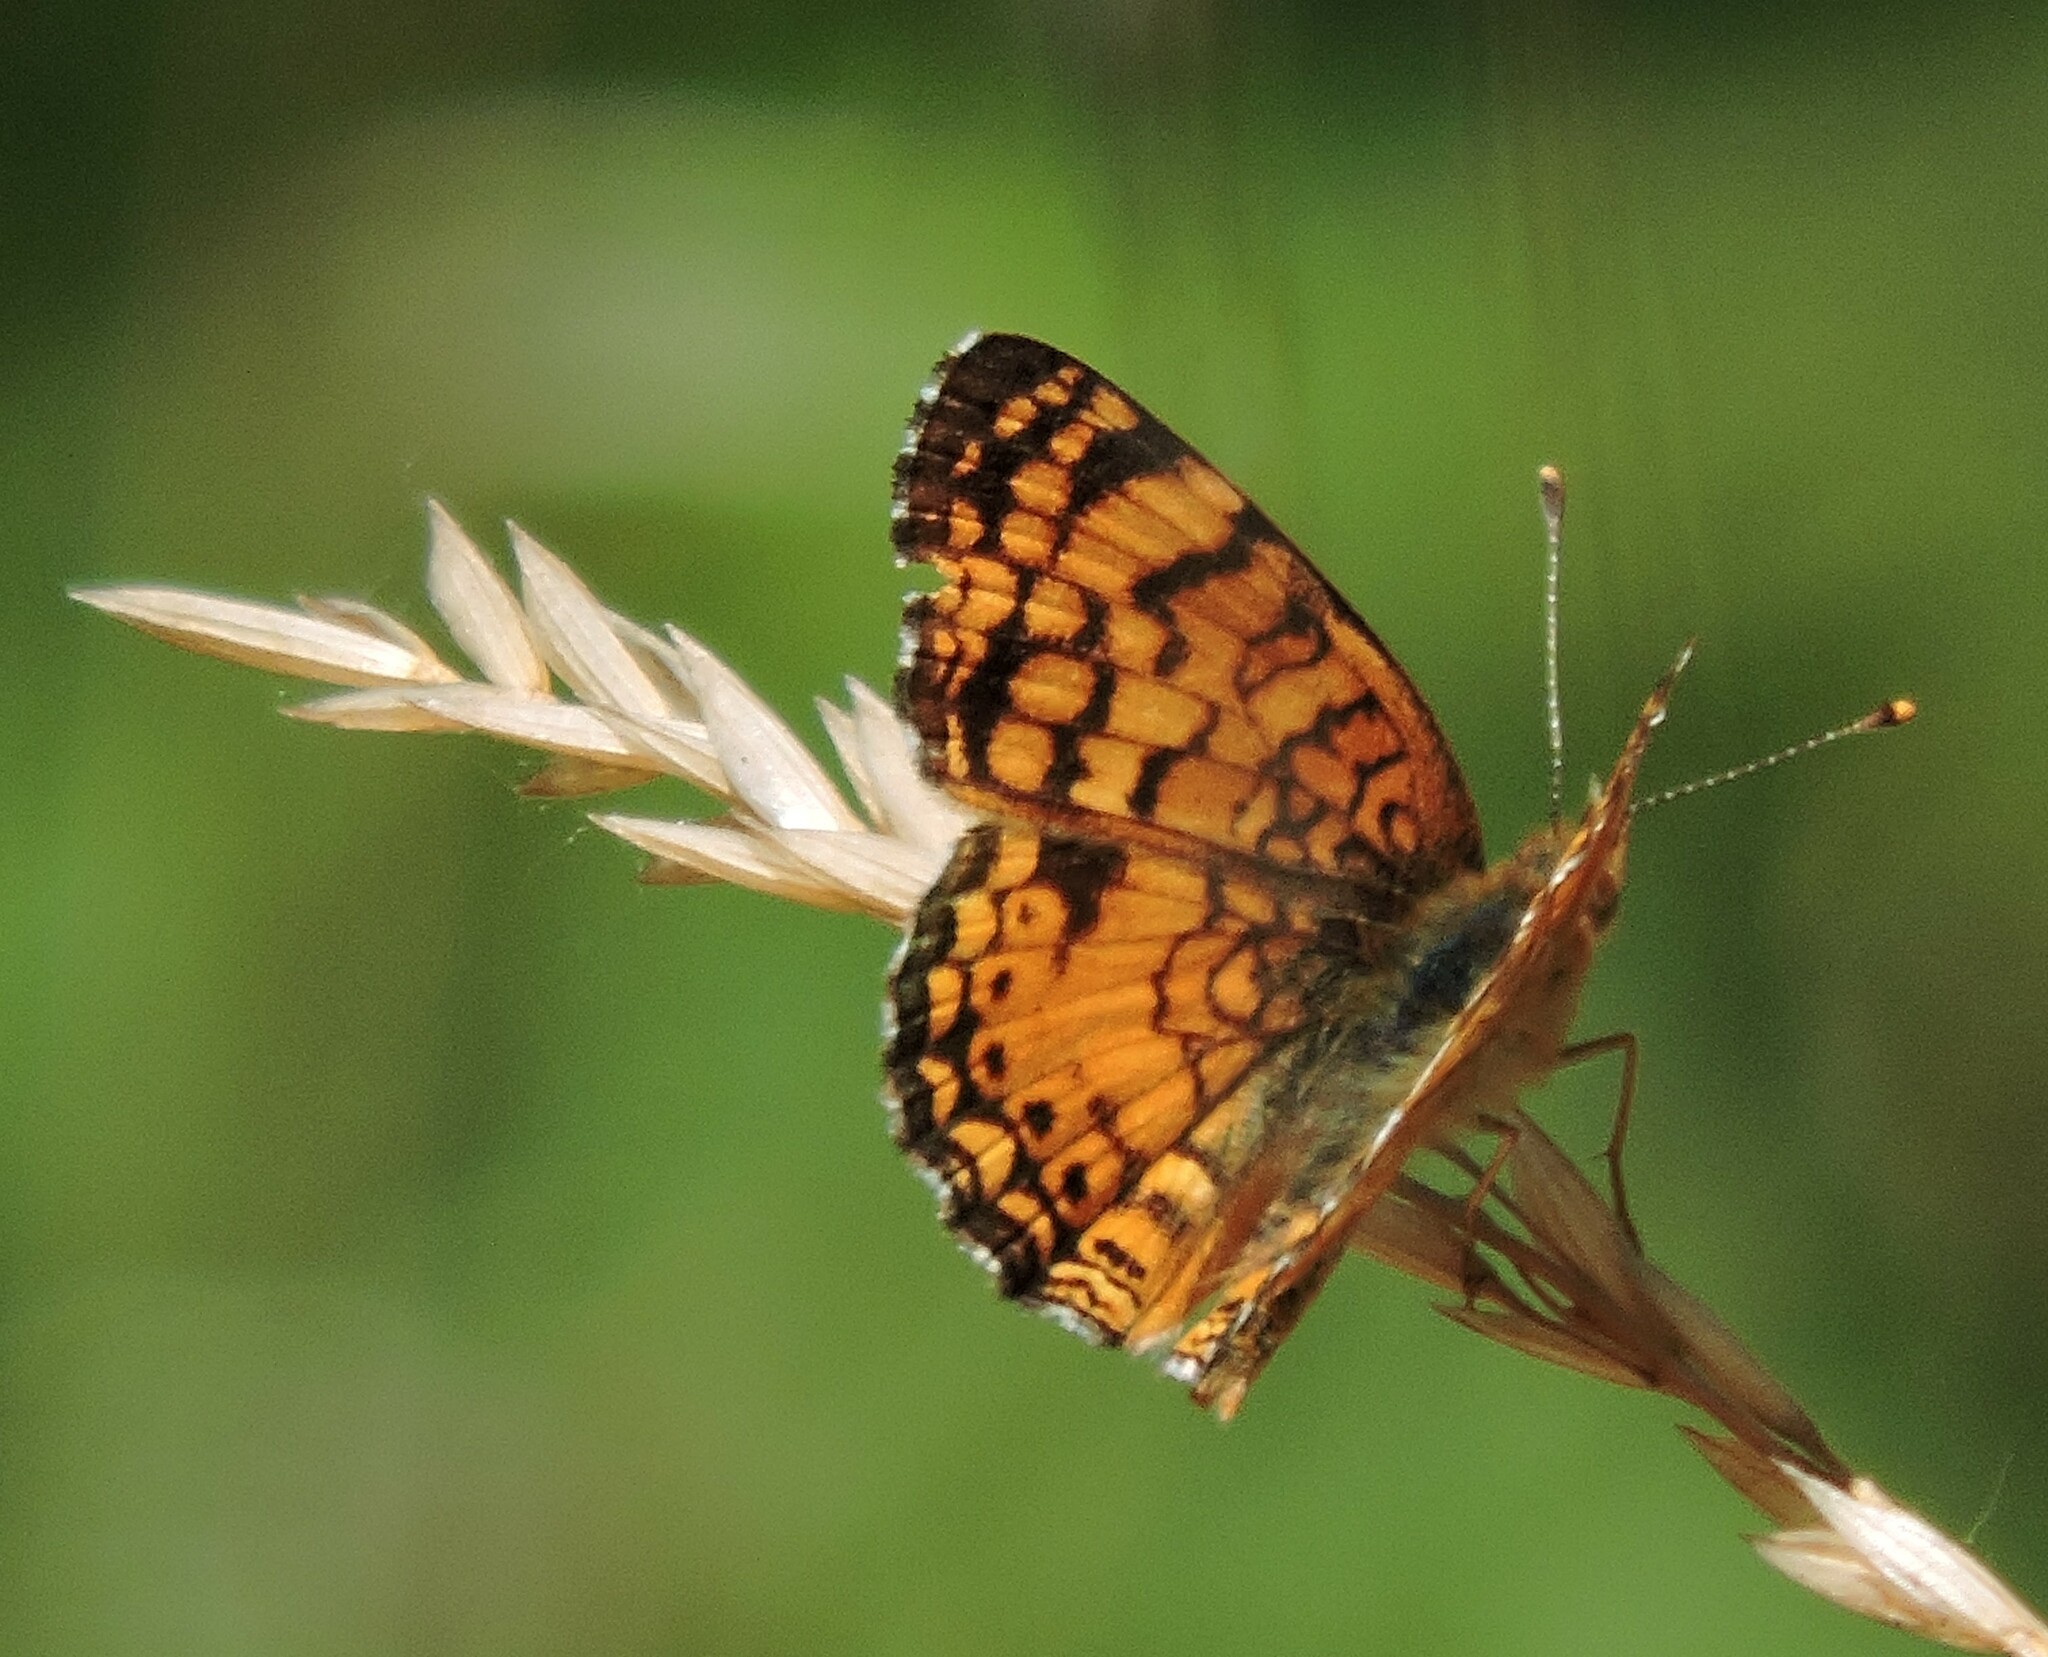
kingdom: Animalia
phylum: Arthropoda
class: Insecta
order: Lepidoptera
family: Nymphalidae
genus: Eresia
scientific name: Eresia aveyrona
